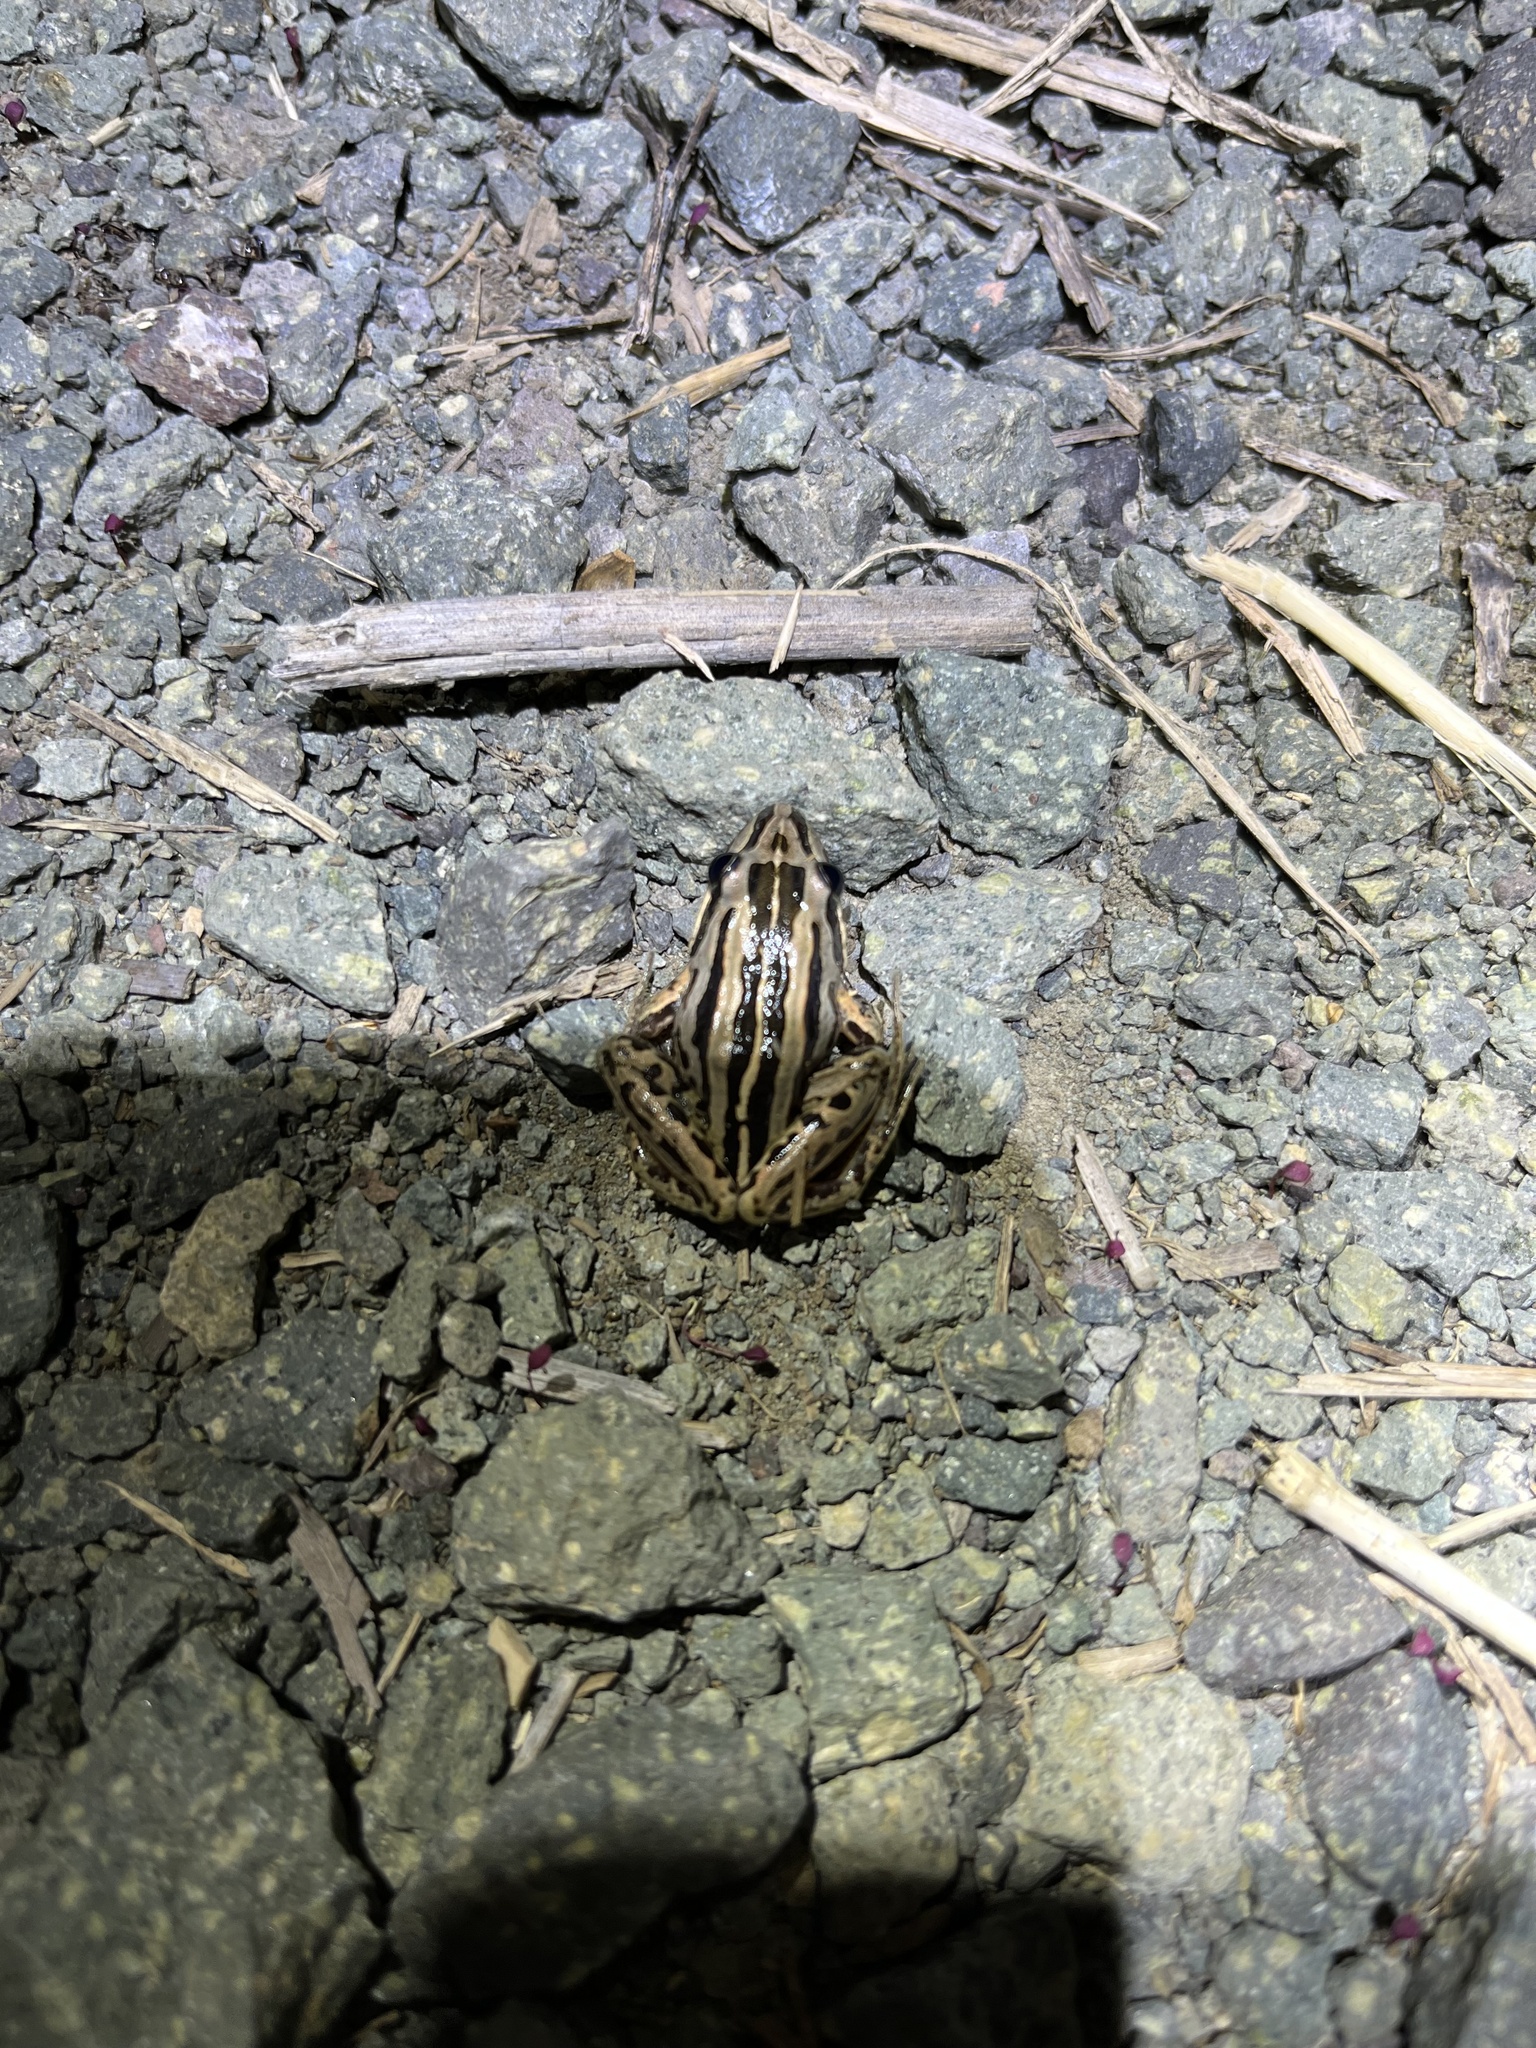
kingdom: Animalia
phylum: Chordata
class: Amphibia
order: Anura
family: Limnodynastidae
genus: Limnodynastes
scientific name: Limnodynastes peronii
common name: Brown frog
